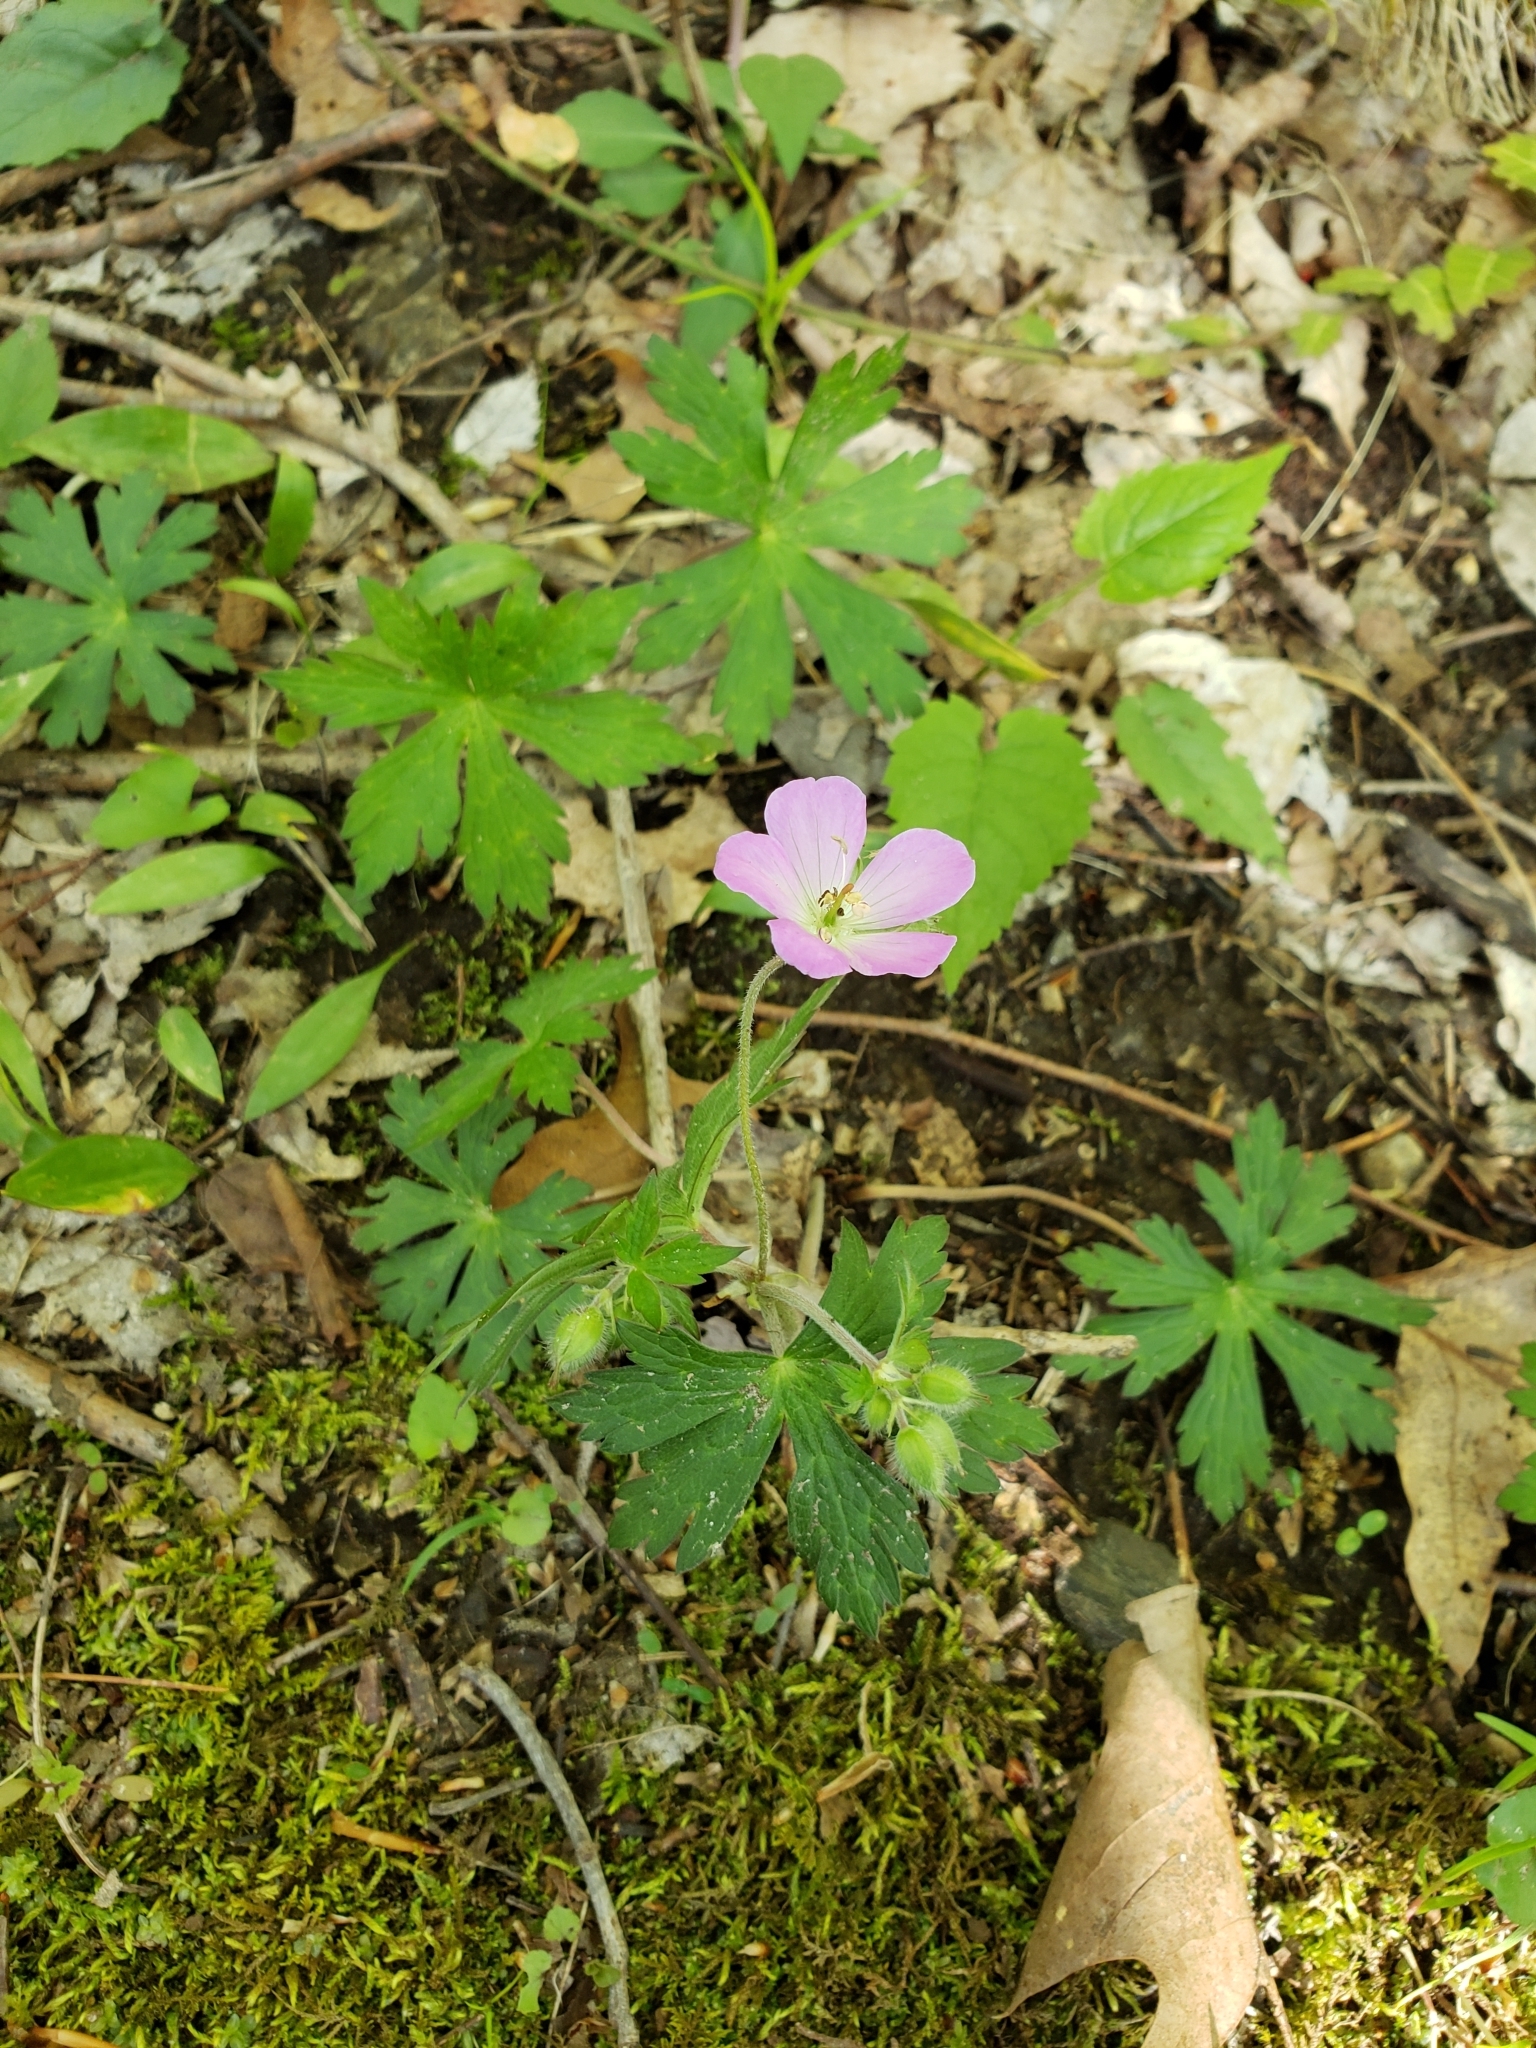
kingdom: Plantae
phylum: Tracheophyta
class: Magnoliopsida
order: Geraniales
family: Geraniaceae
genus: Geranium
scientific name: Geranium maculatum
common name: Spotted geranium
